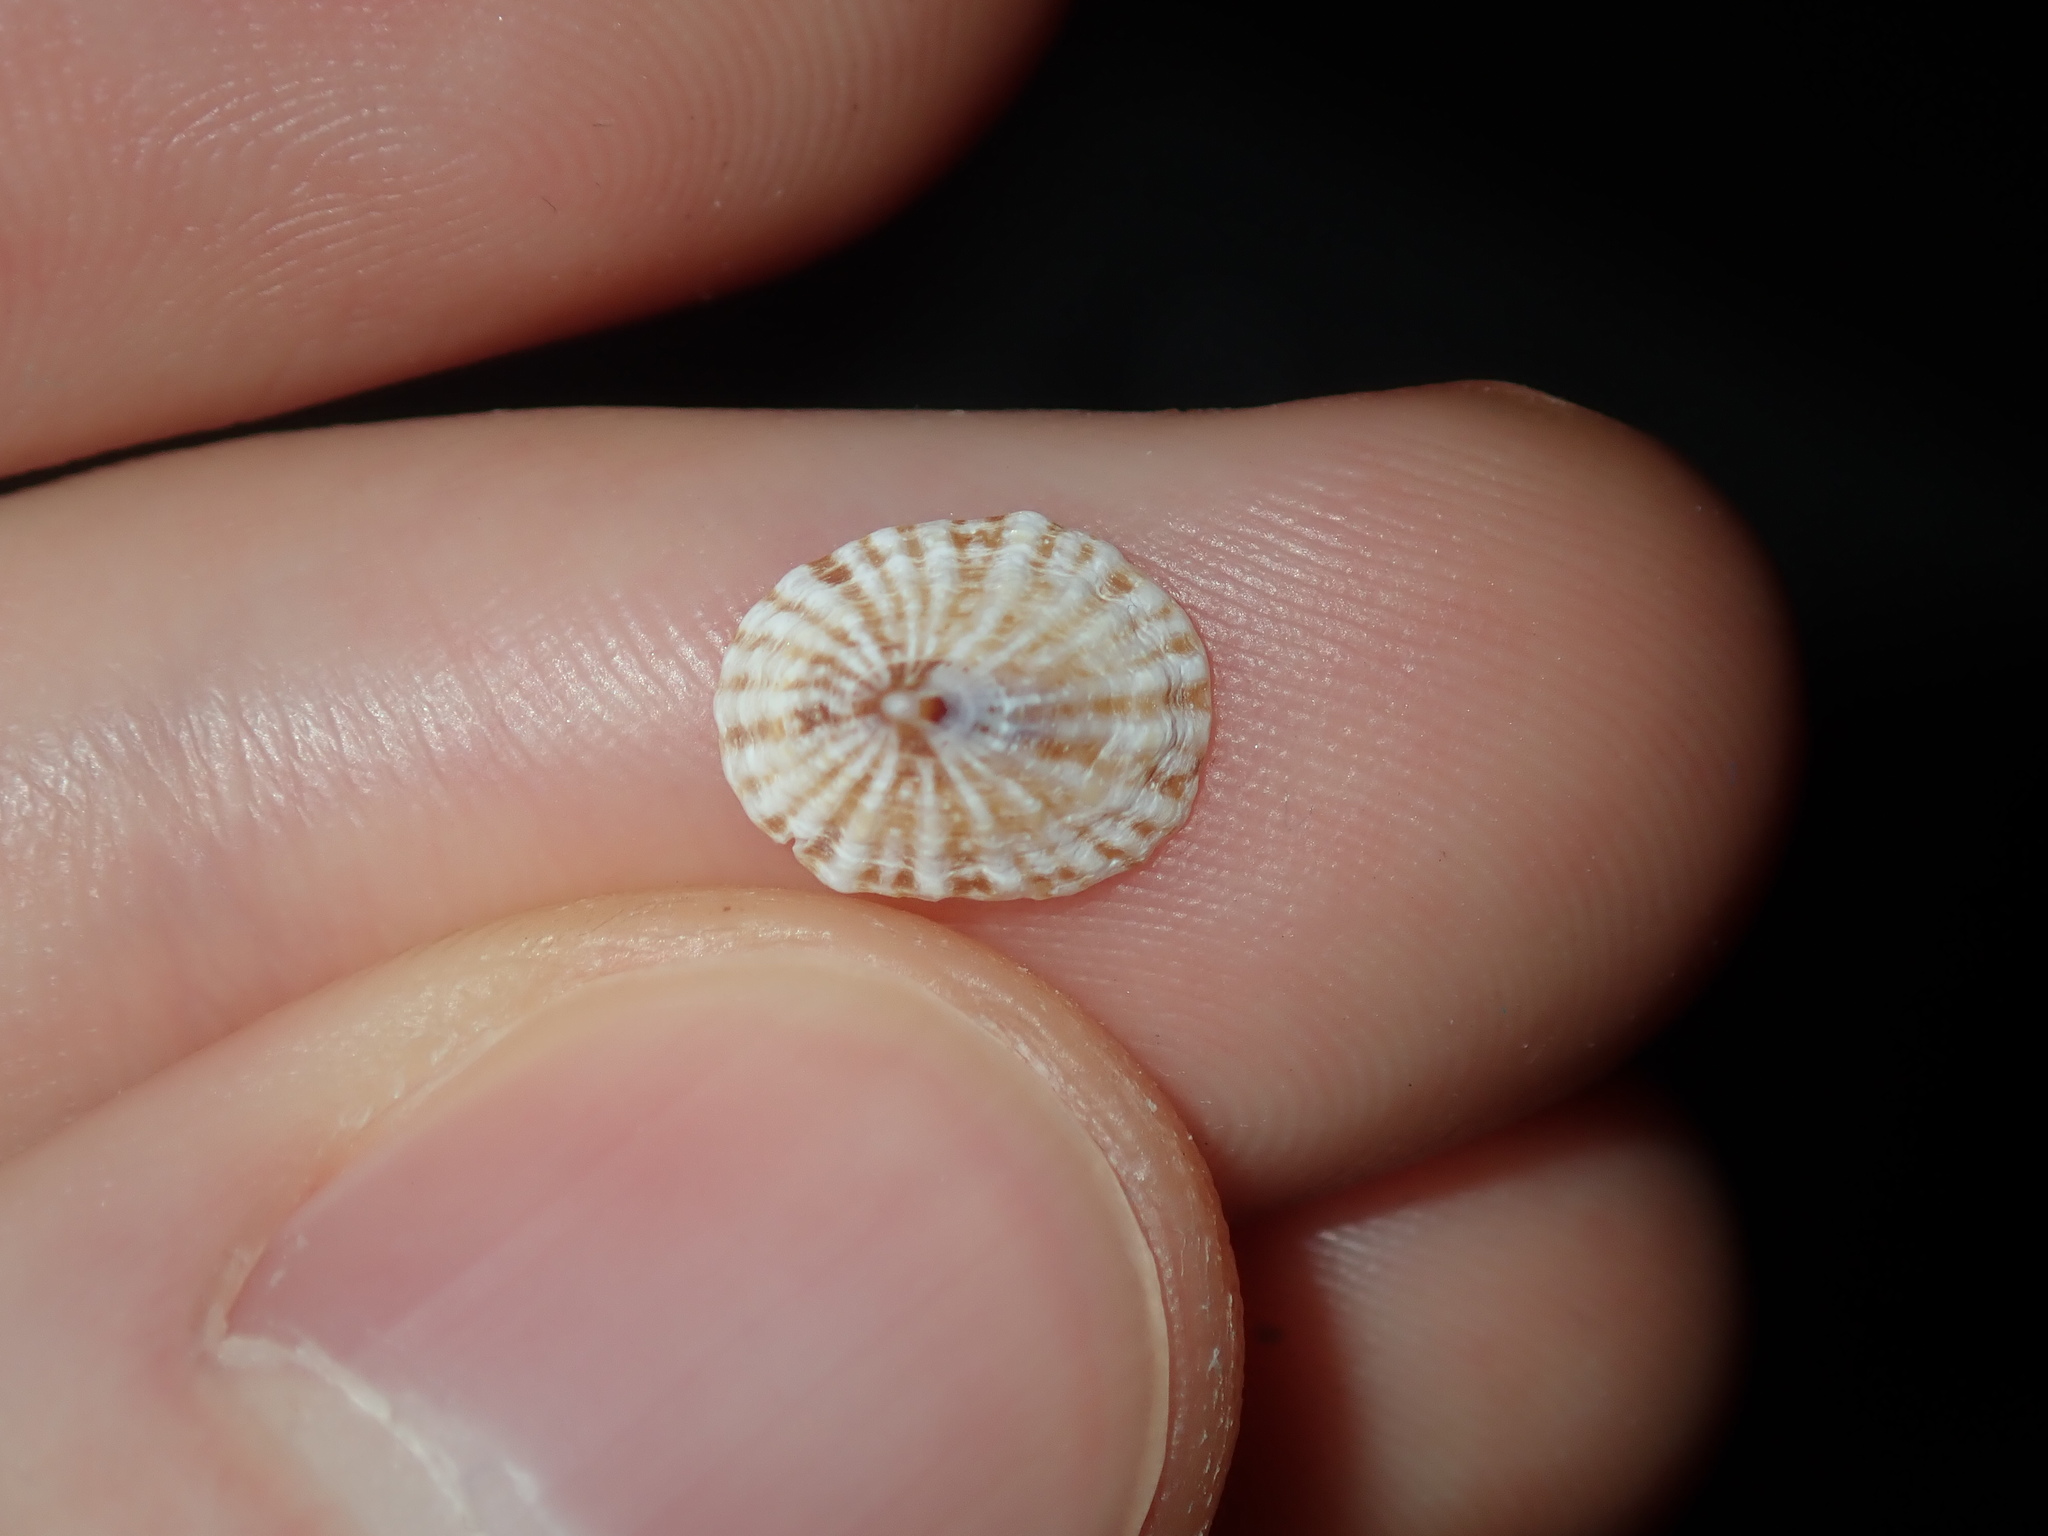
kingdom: Animalia
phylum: Mollusca
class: Gastropoda
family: Lottiidae
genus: Patelloida
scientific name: Patelloida mufria
